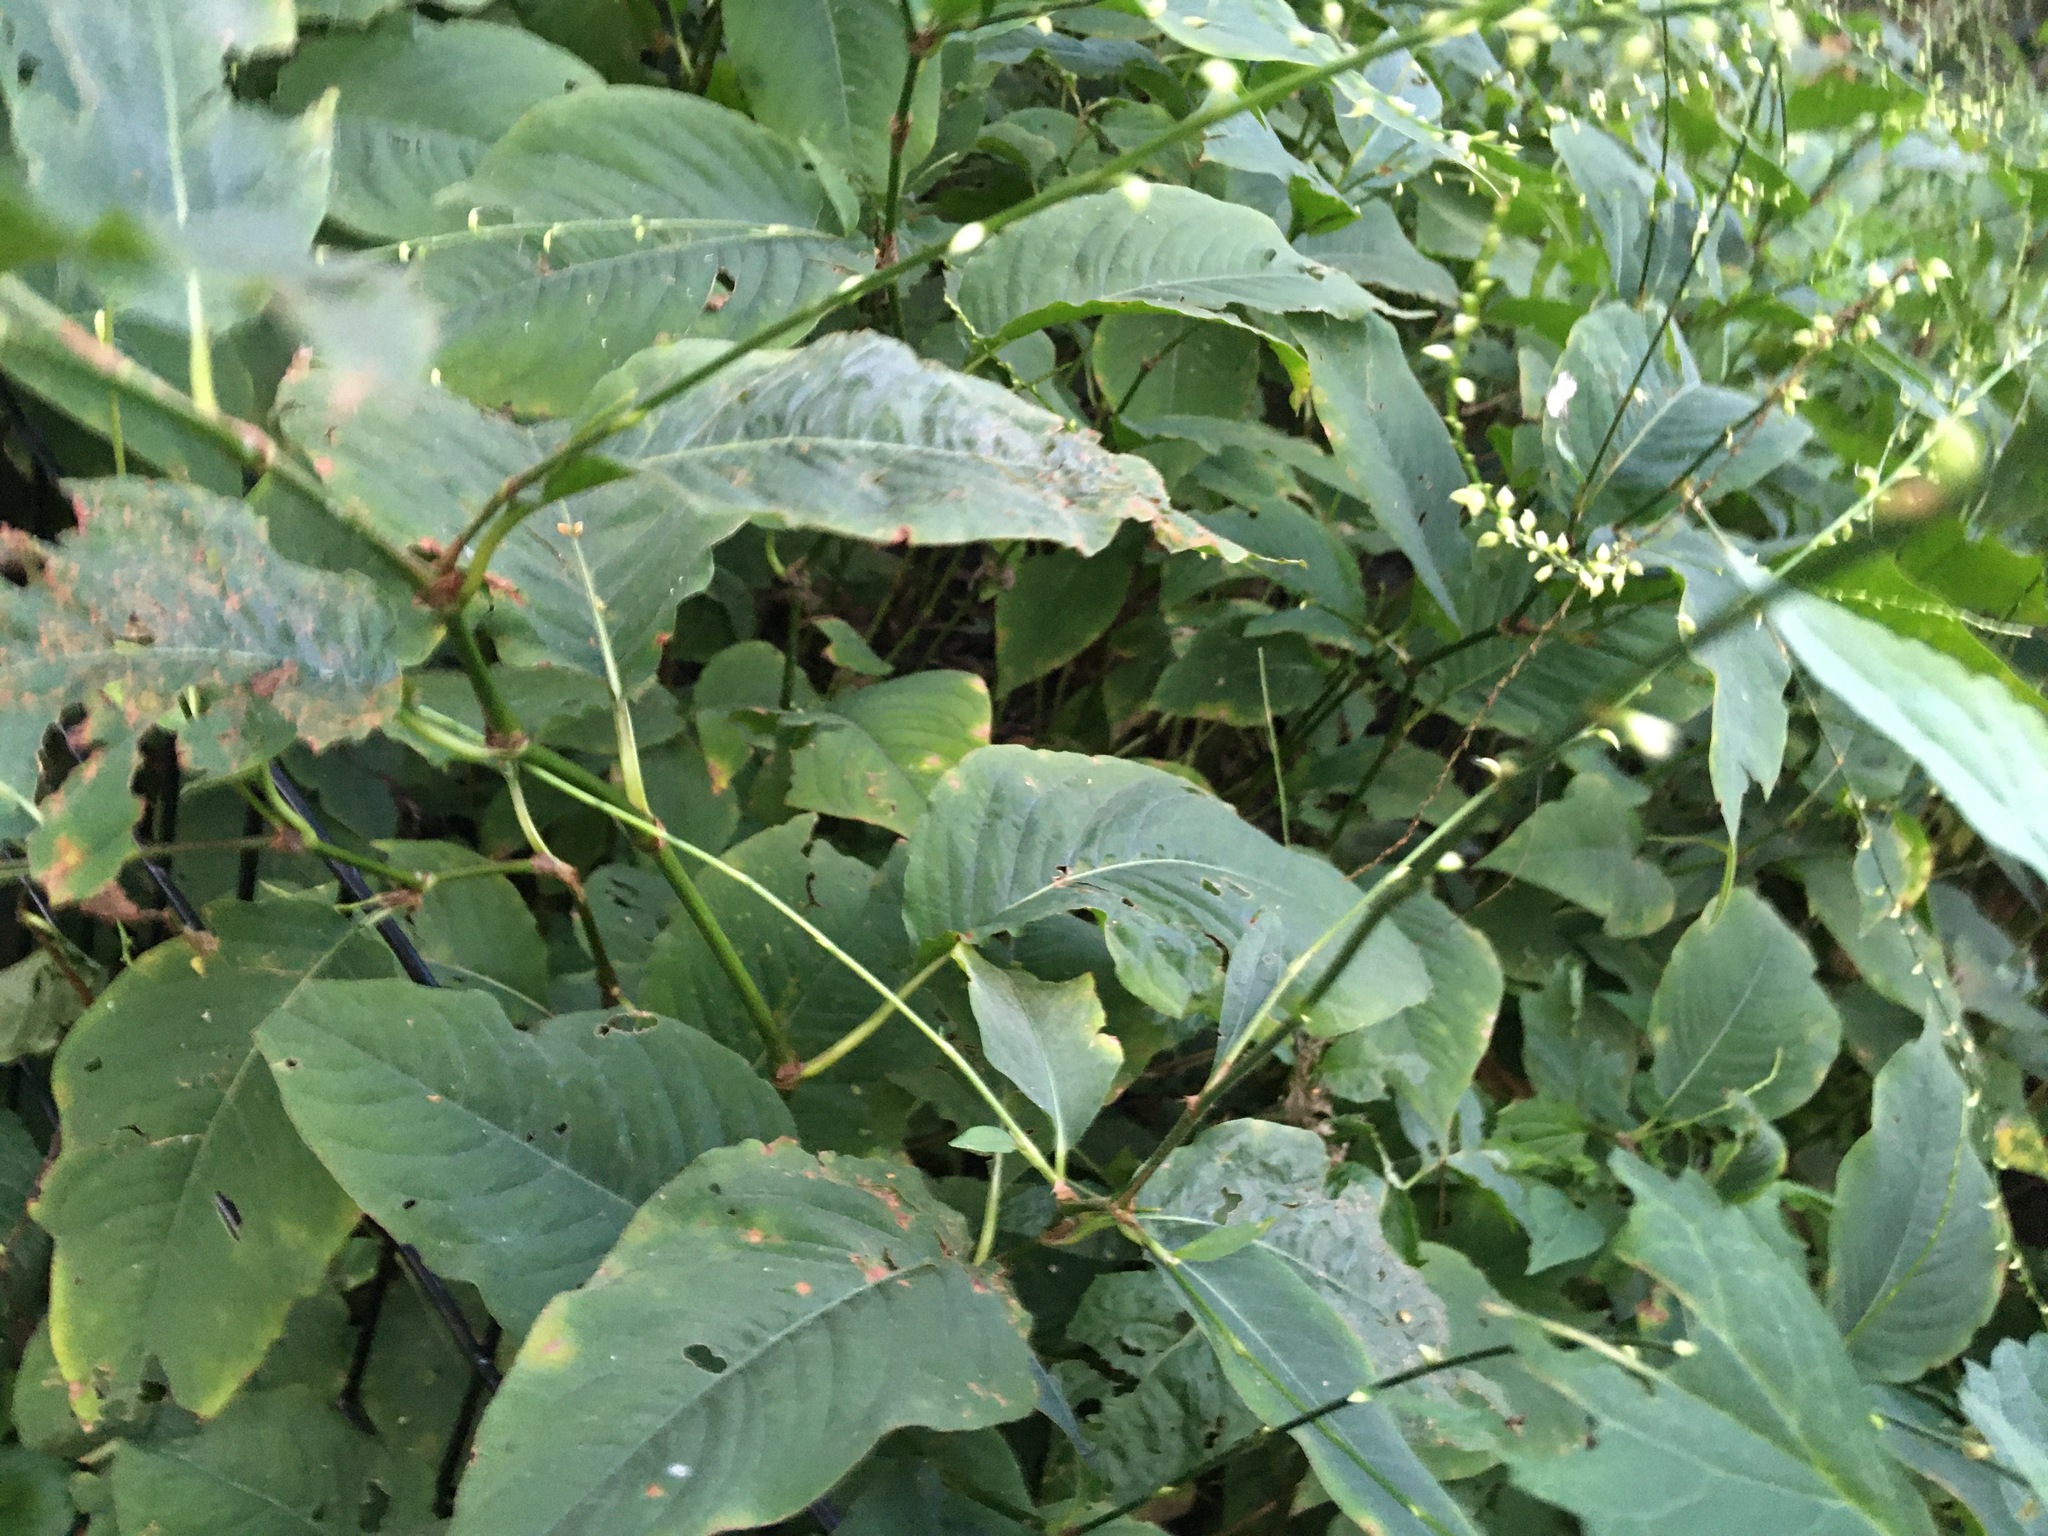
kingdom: Plantae
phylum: Tracheophyta
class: Magnoliopsida
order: Caryophyllales
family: Polygonaceae
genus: Persicaria
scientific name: Persicaria virginiana
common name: Jumpseed
